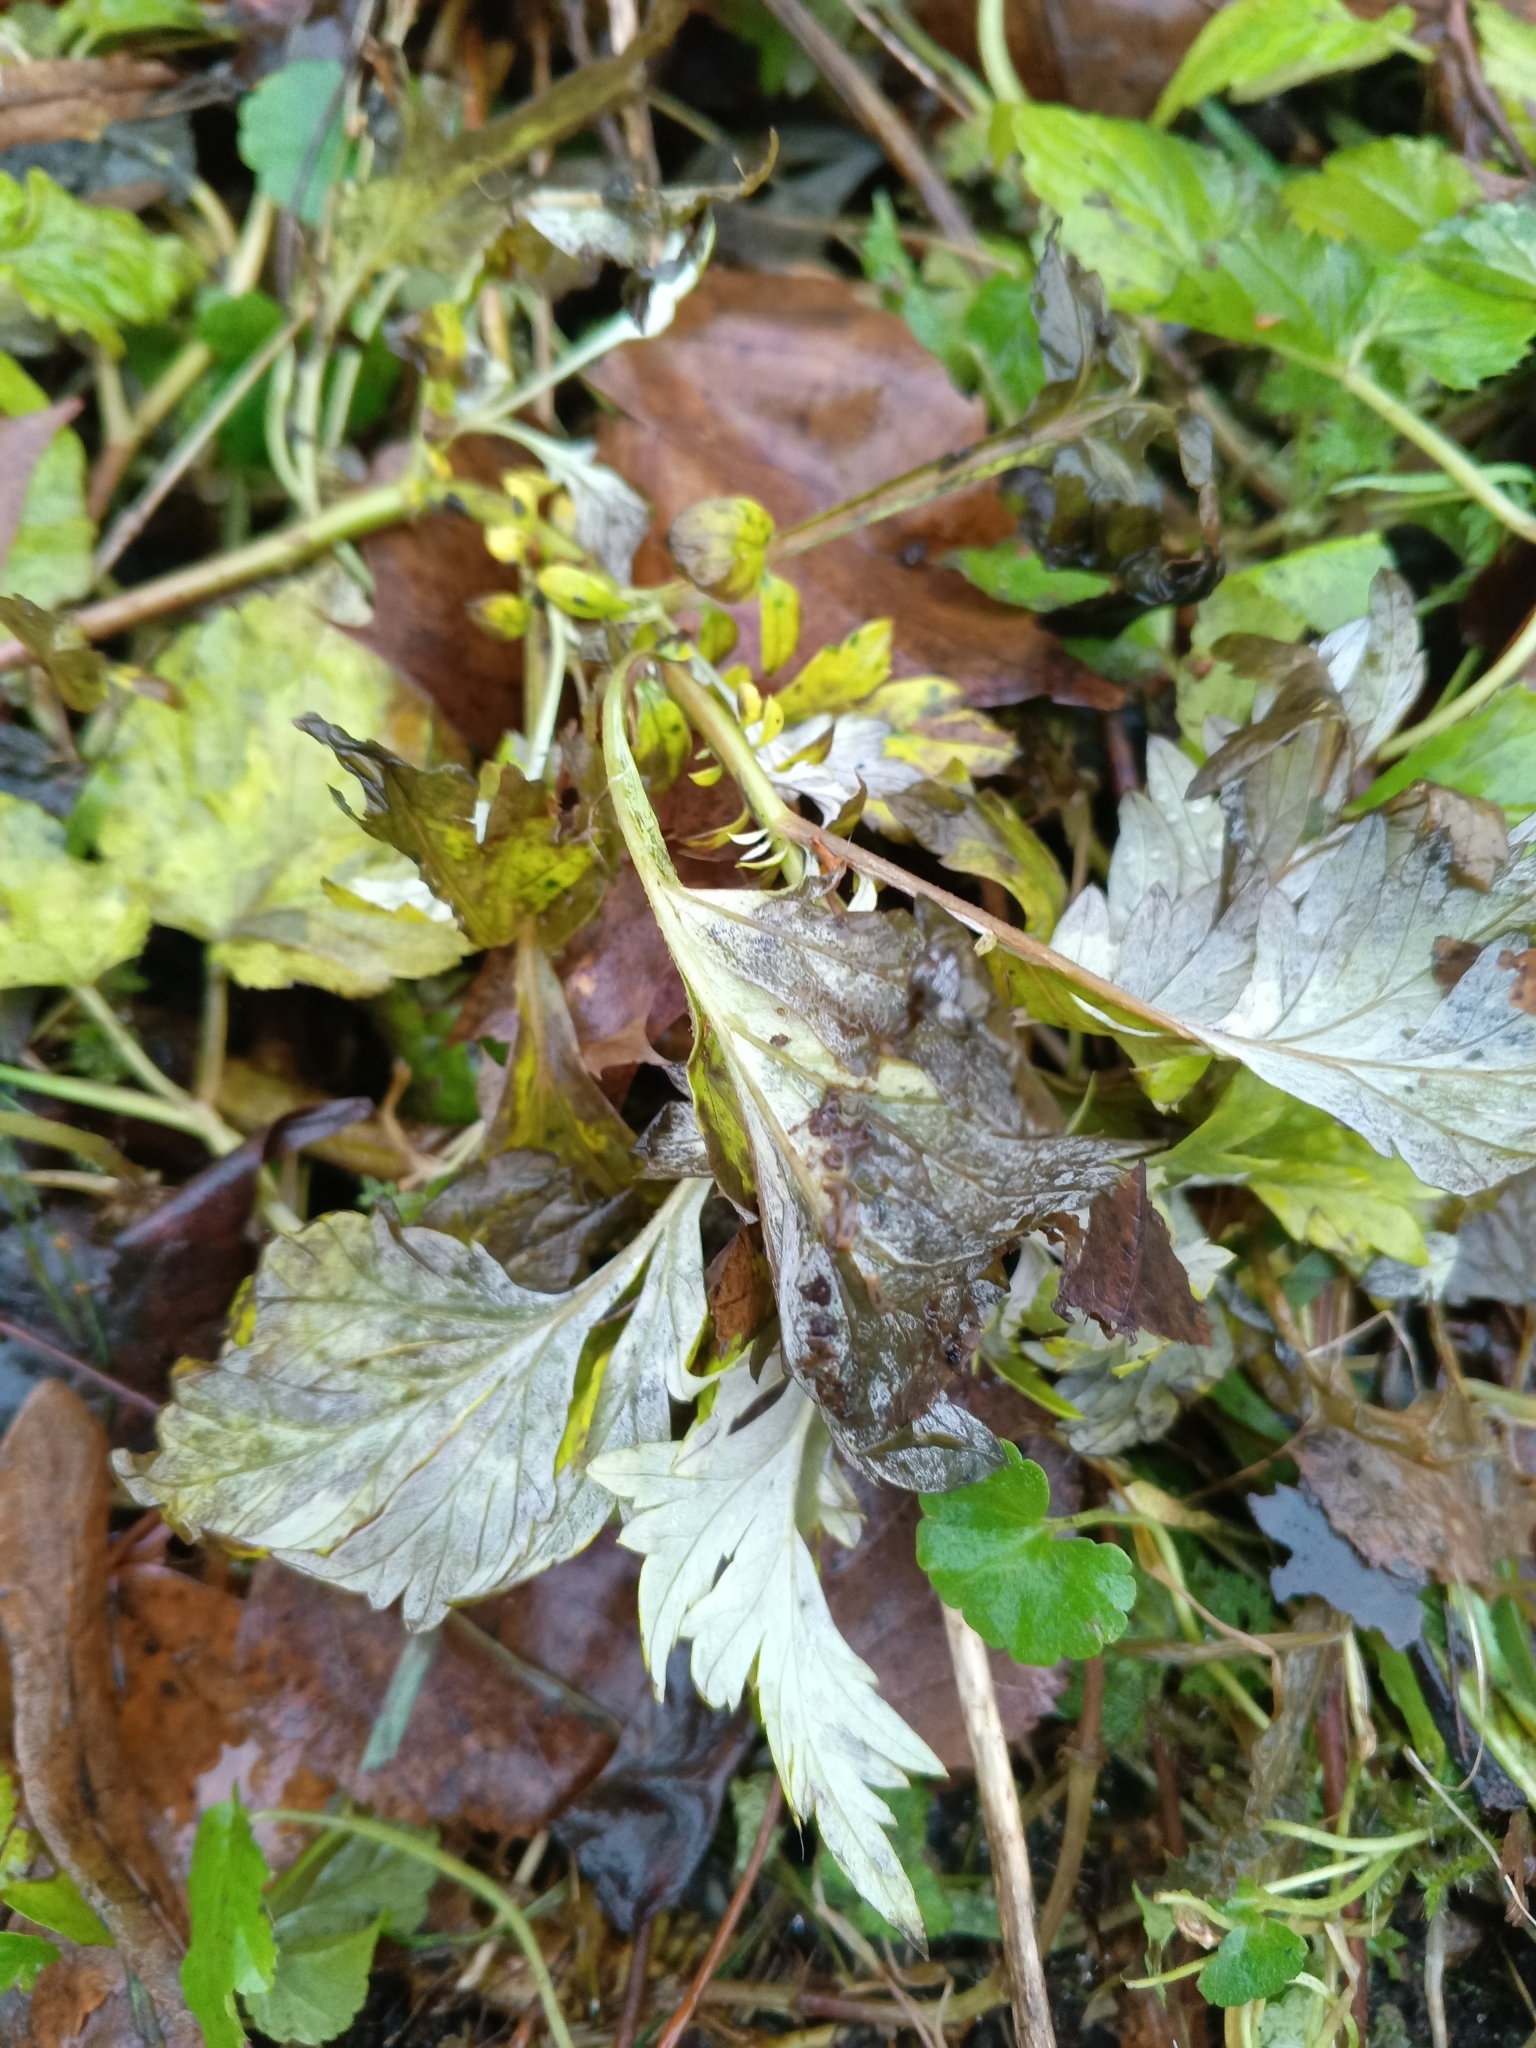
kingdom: Plantae
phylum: Tracheophyta
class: Magnoliopsida
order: Asterales
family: Asteraceae
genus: Artemisia
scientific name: Artemisia vulgaris
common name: Mugwort
